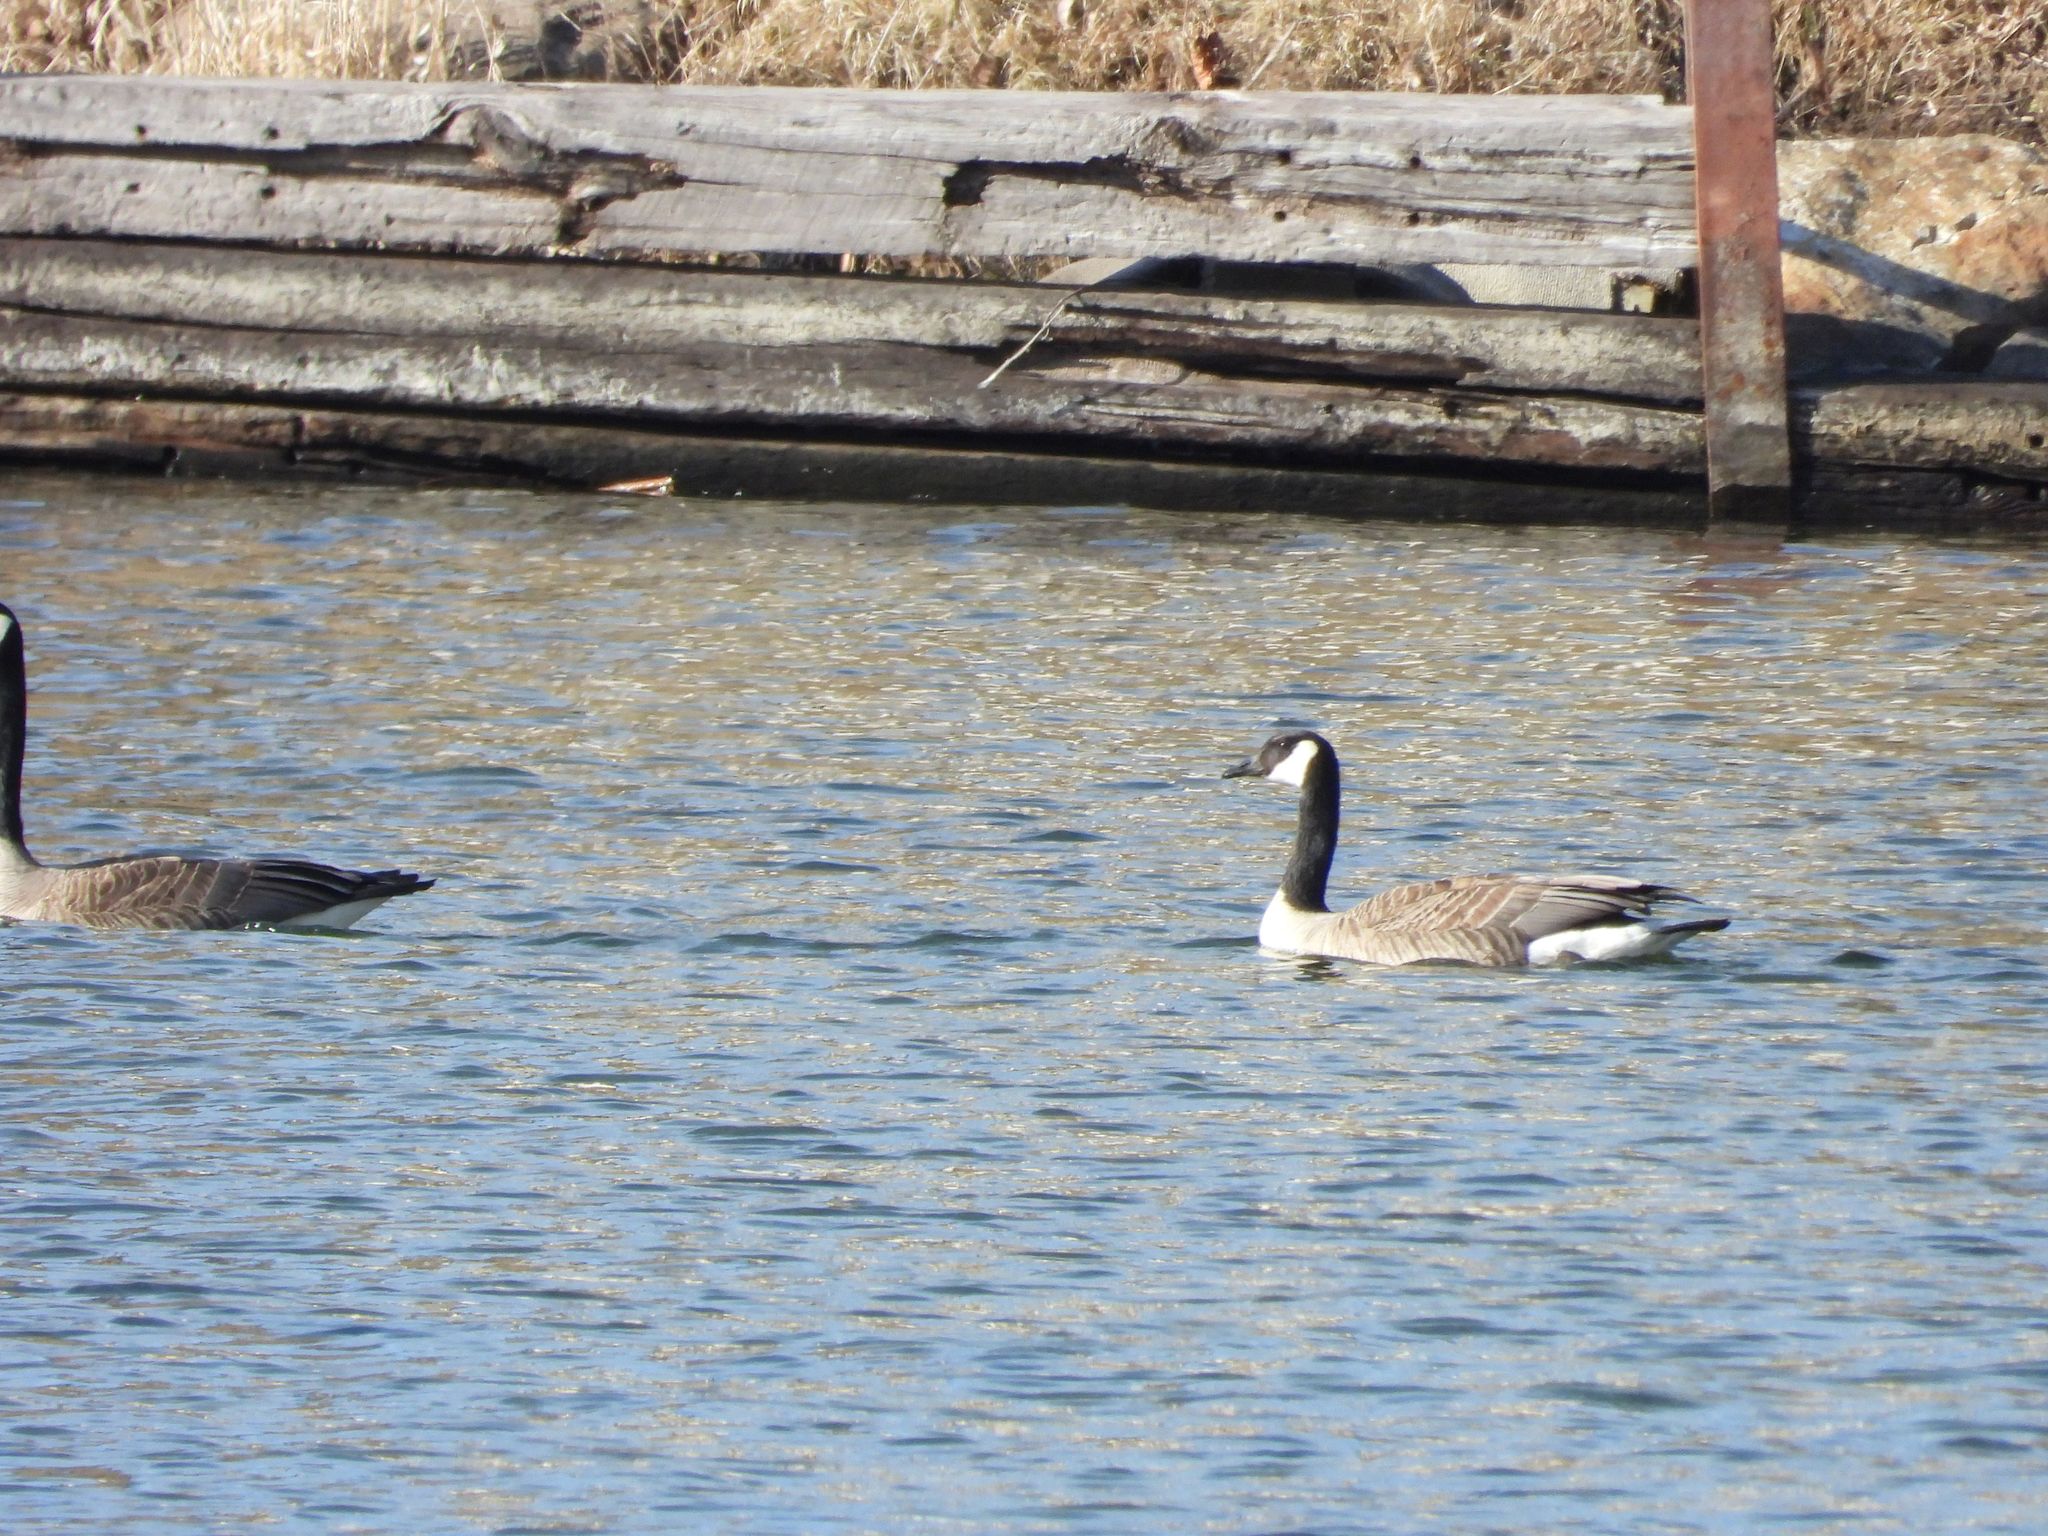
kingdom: Animalia
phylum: Chordata
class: Aves
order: Anseriformes
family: Anatidae
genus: Branta
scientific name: Branta canadensis
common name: Canada goose
